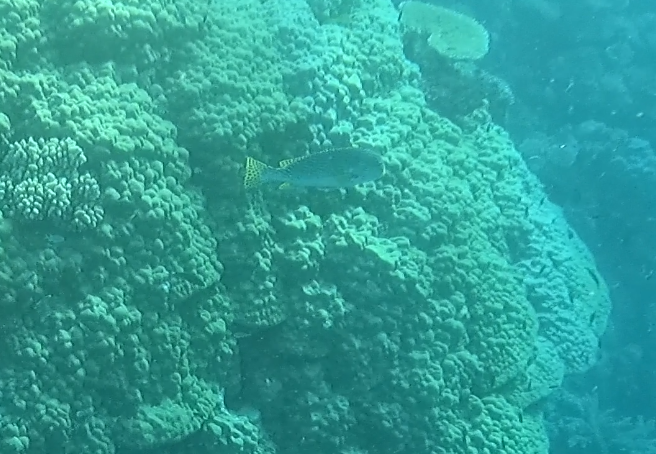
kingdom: Animalia
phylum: Chordata
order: Perciformes
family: Haemulidae
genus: Plectorhinchus
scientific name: Plectorhinchus lineatus
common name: Goldman's sweetlips
